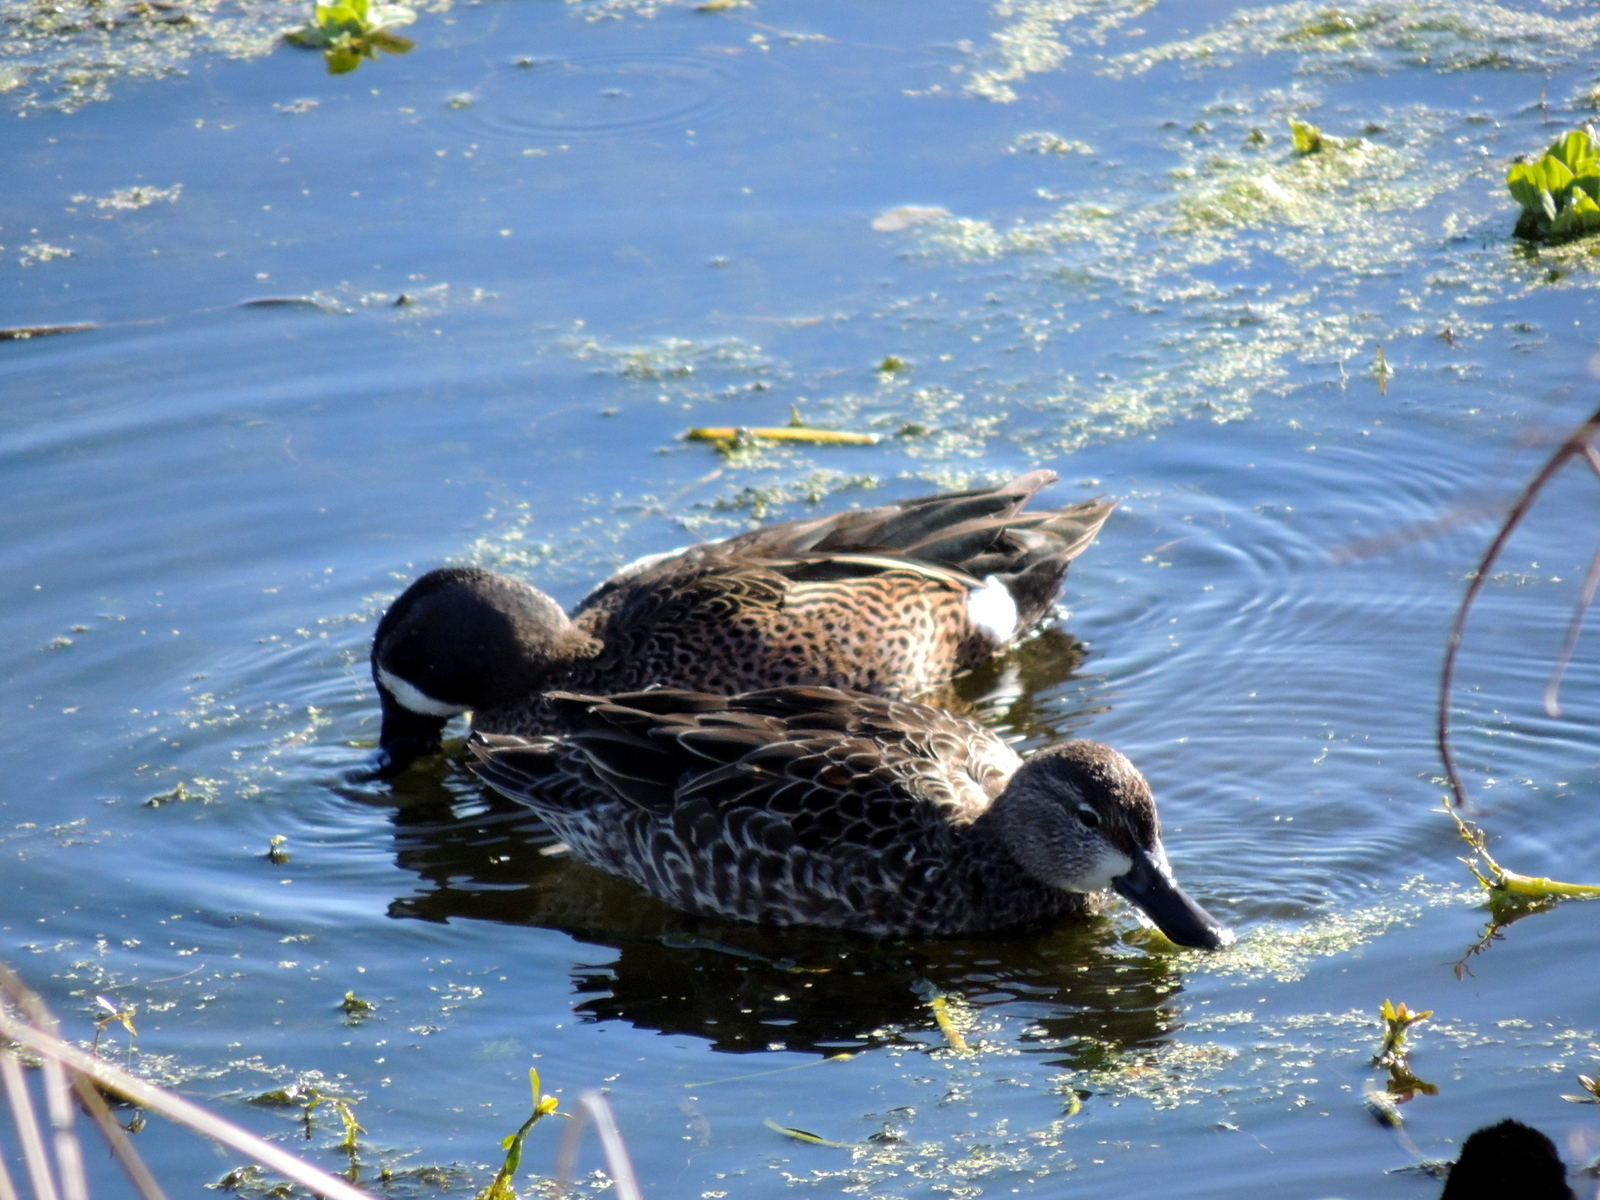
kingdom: Animalia
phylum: Chordata
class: Aves
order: Anseriformes
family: Anatidae
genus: Spatula
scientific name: Spatula discors
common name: Blue-winged teal
